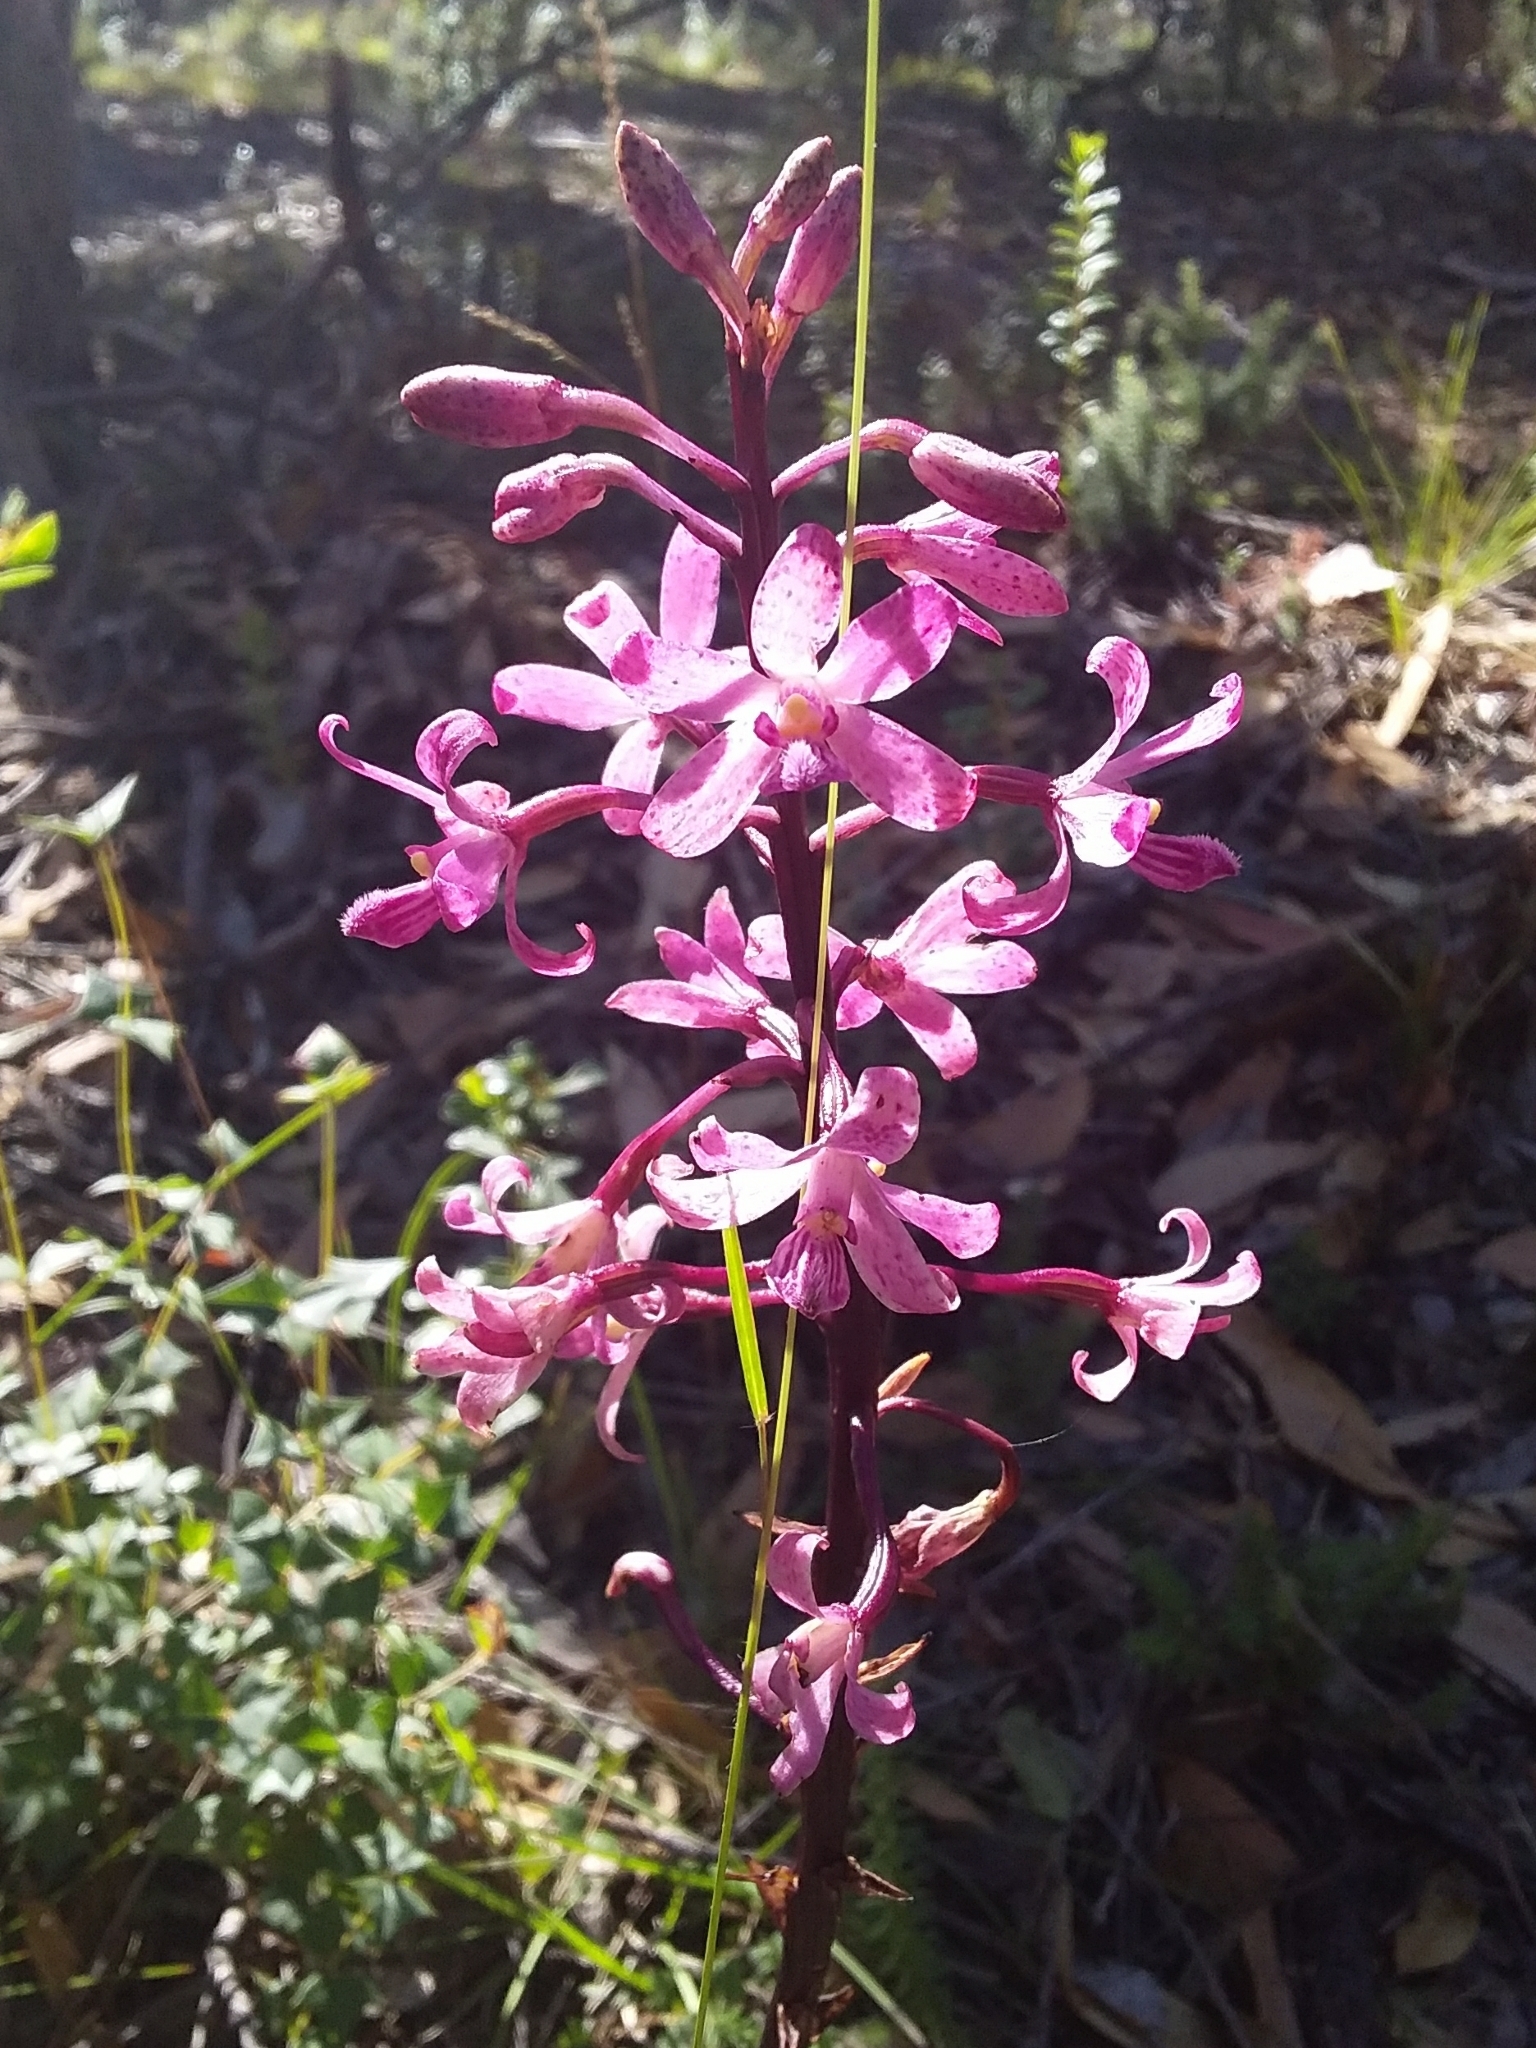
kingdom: Plantae
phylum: Tracheophyta
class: Liliopsida
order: Asparagales
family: Orchidaceae
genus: Dipodium
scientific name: Dipodium roseum
